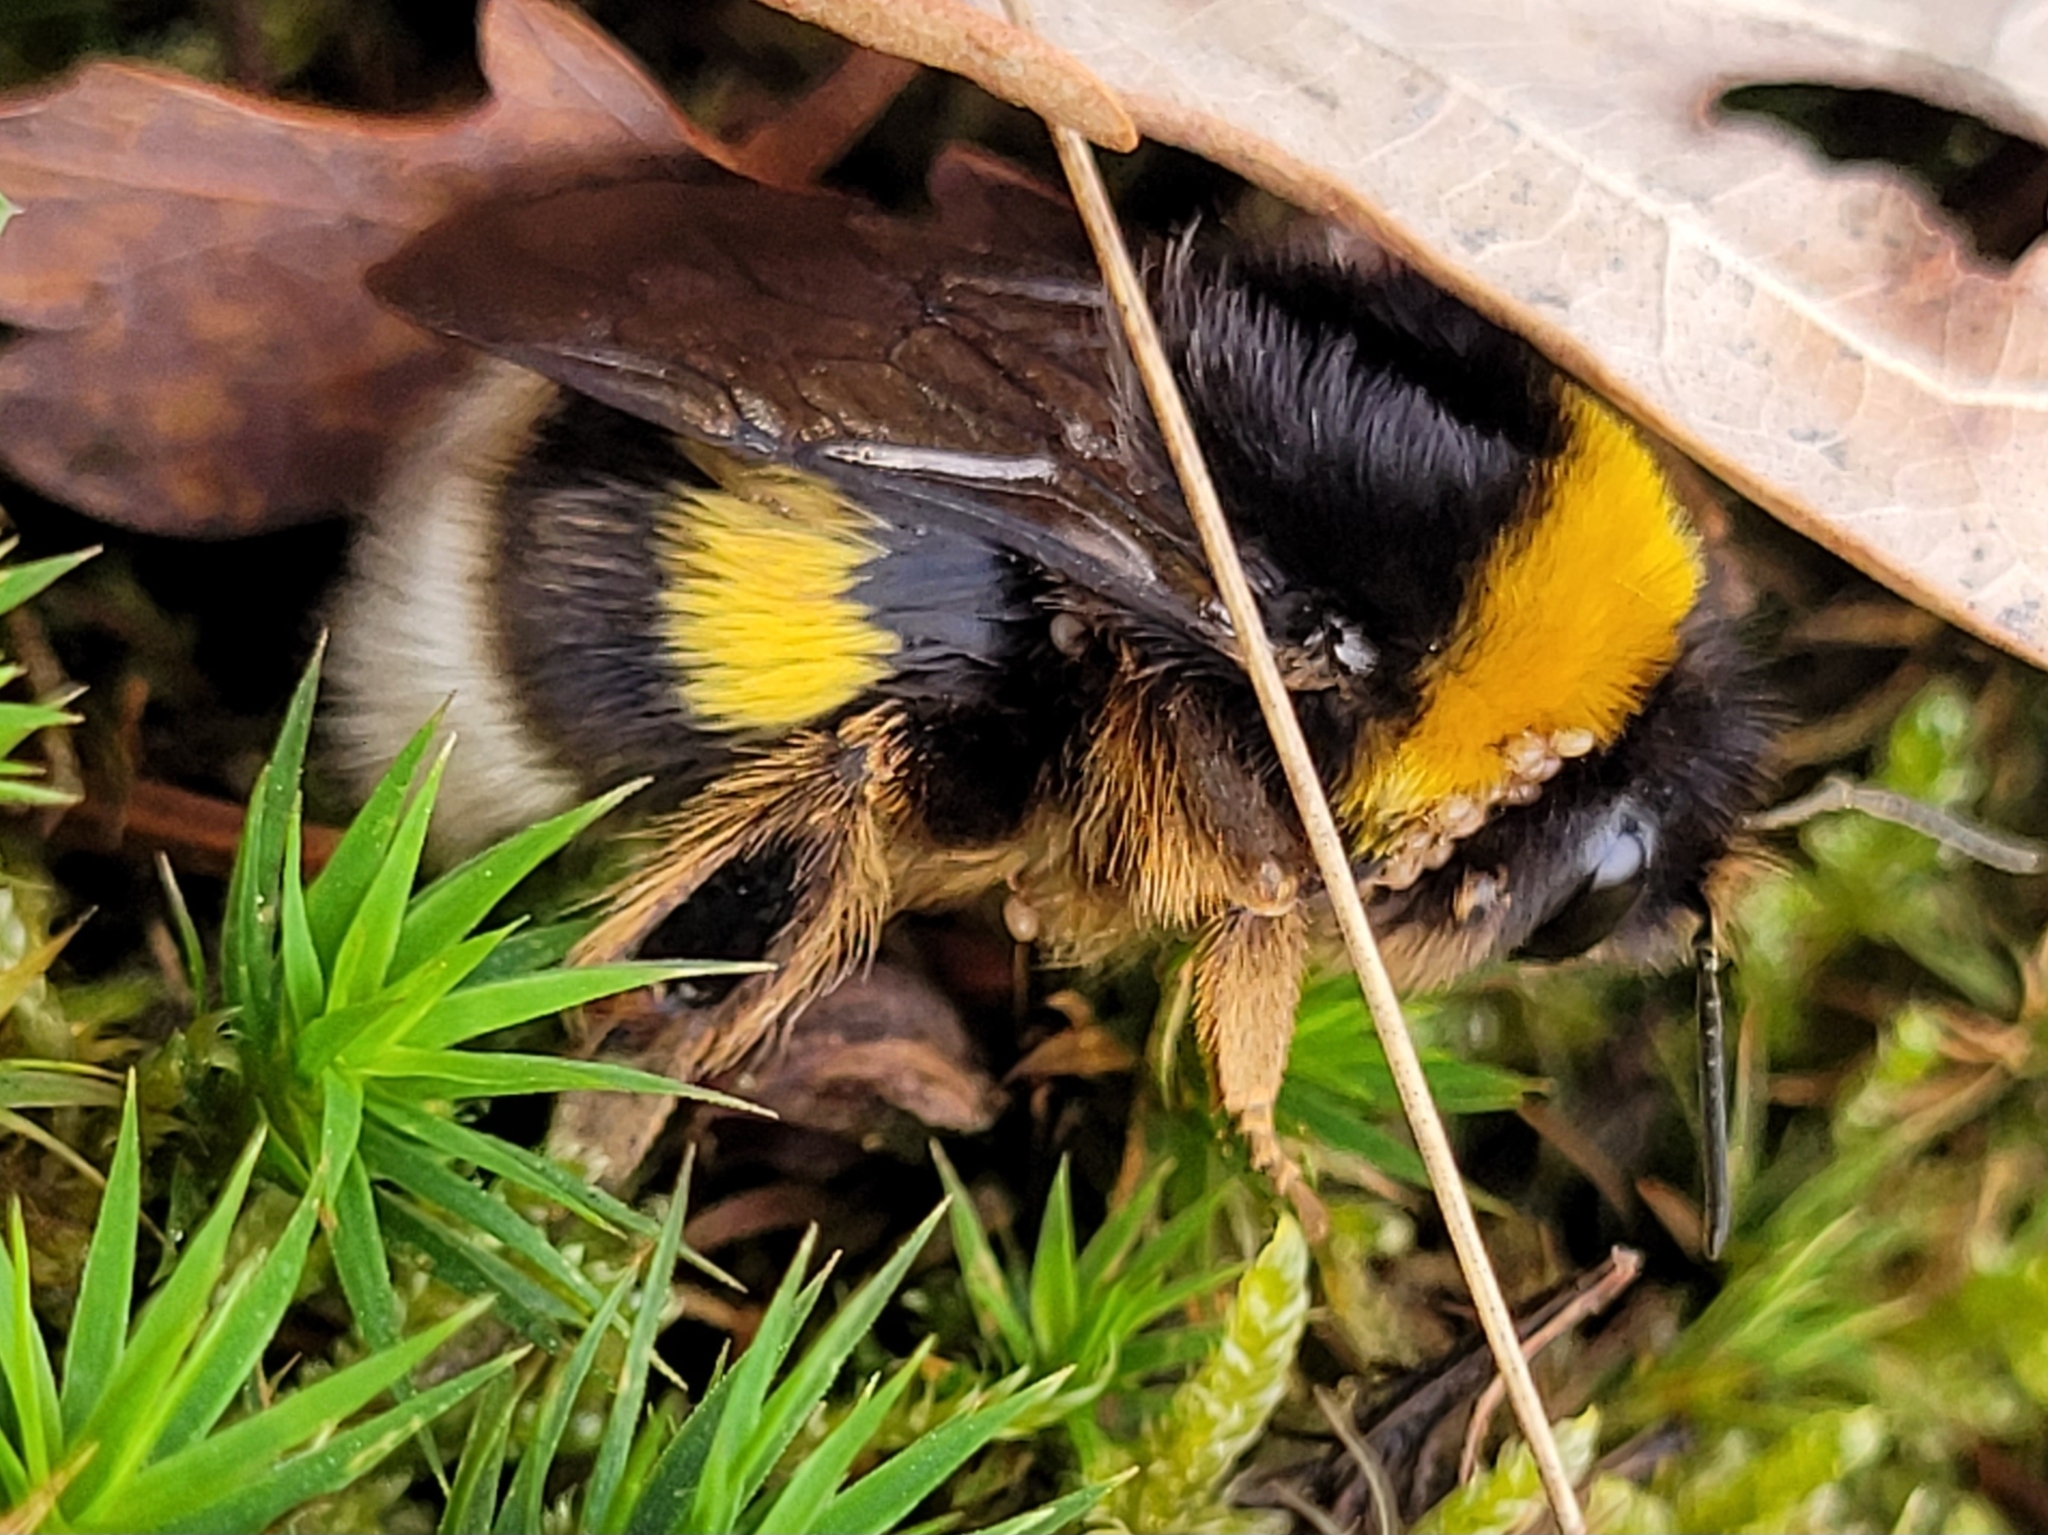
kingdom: Animalia
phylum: Arthropoda
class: Insecta
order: Hymenoptera
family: Apidae
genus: Bombus
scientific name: Bombus terrestris
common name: Buff-tailed bumblebee
